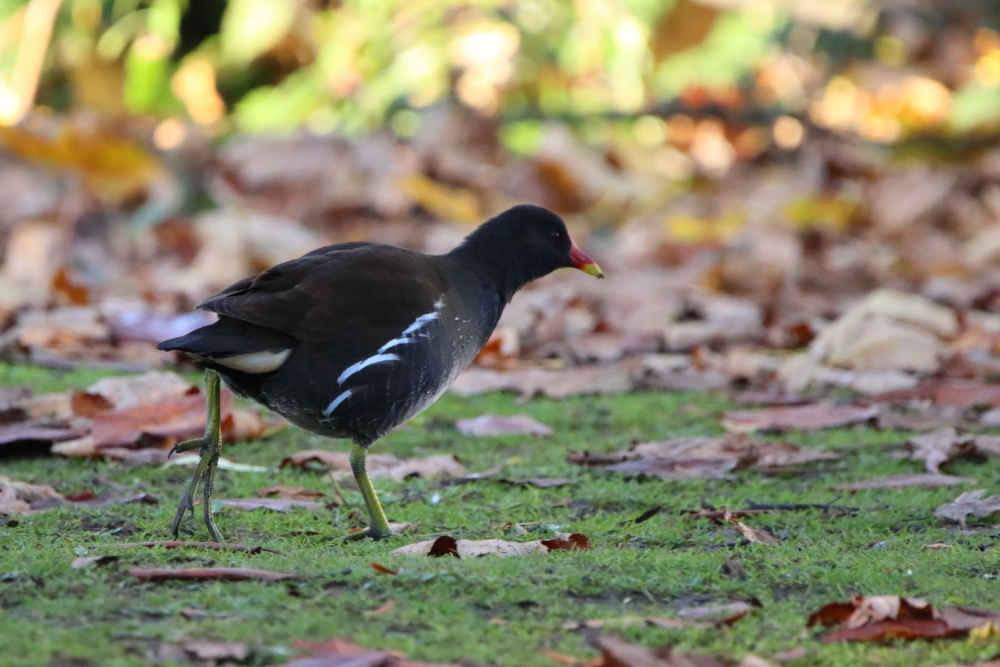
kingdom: Animalia
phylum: Chordata
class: Aves
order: Gruiformes
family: Rallidae
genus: Gallinula
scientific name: Gallinula chloropus
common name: Common moorhen
